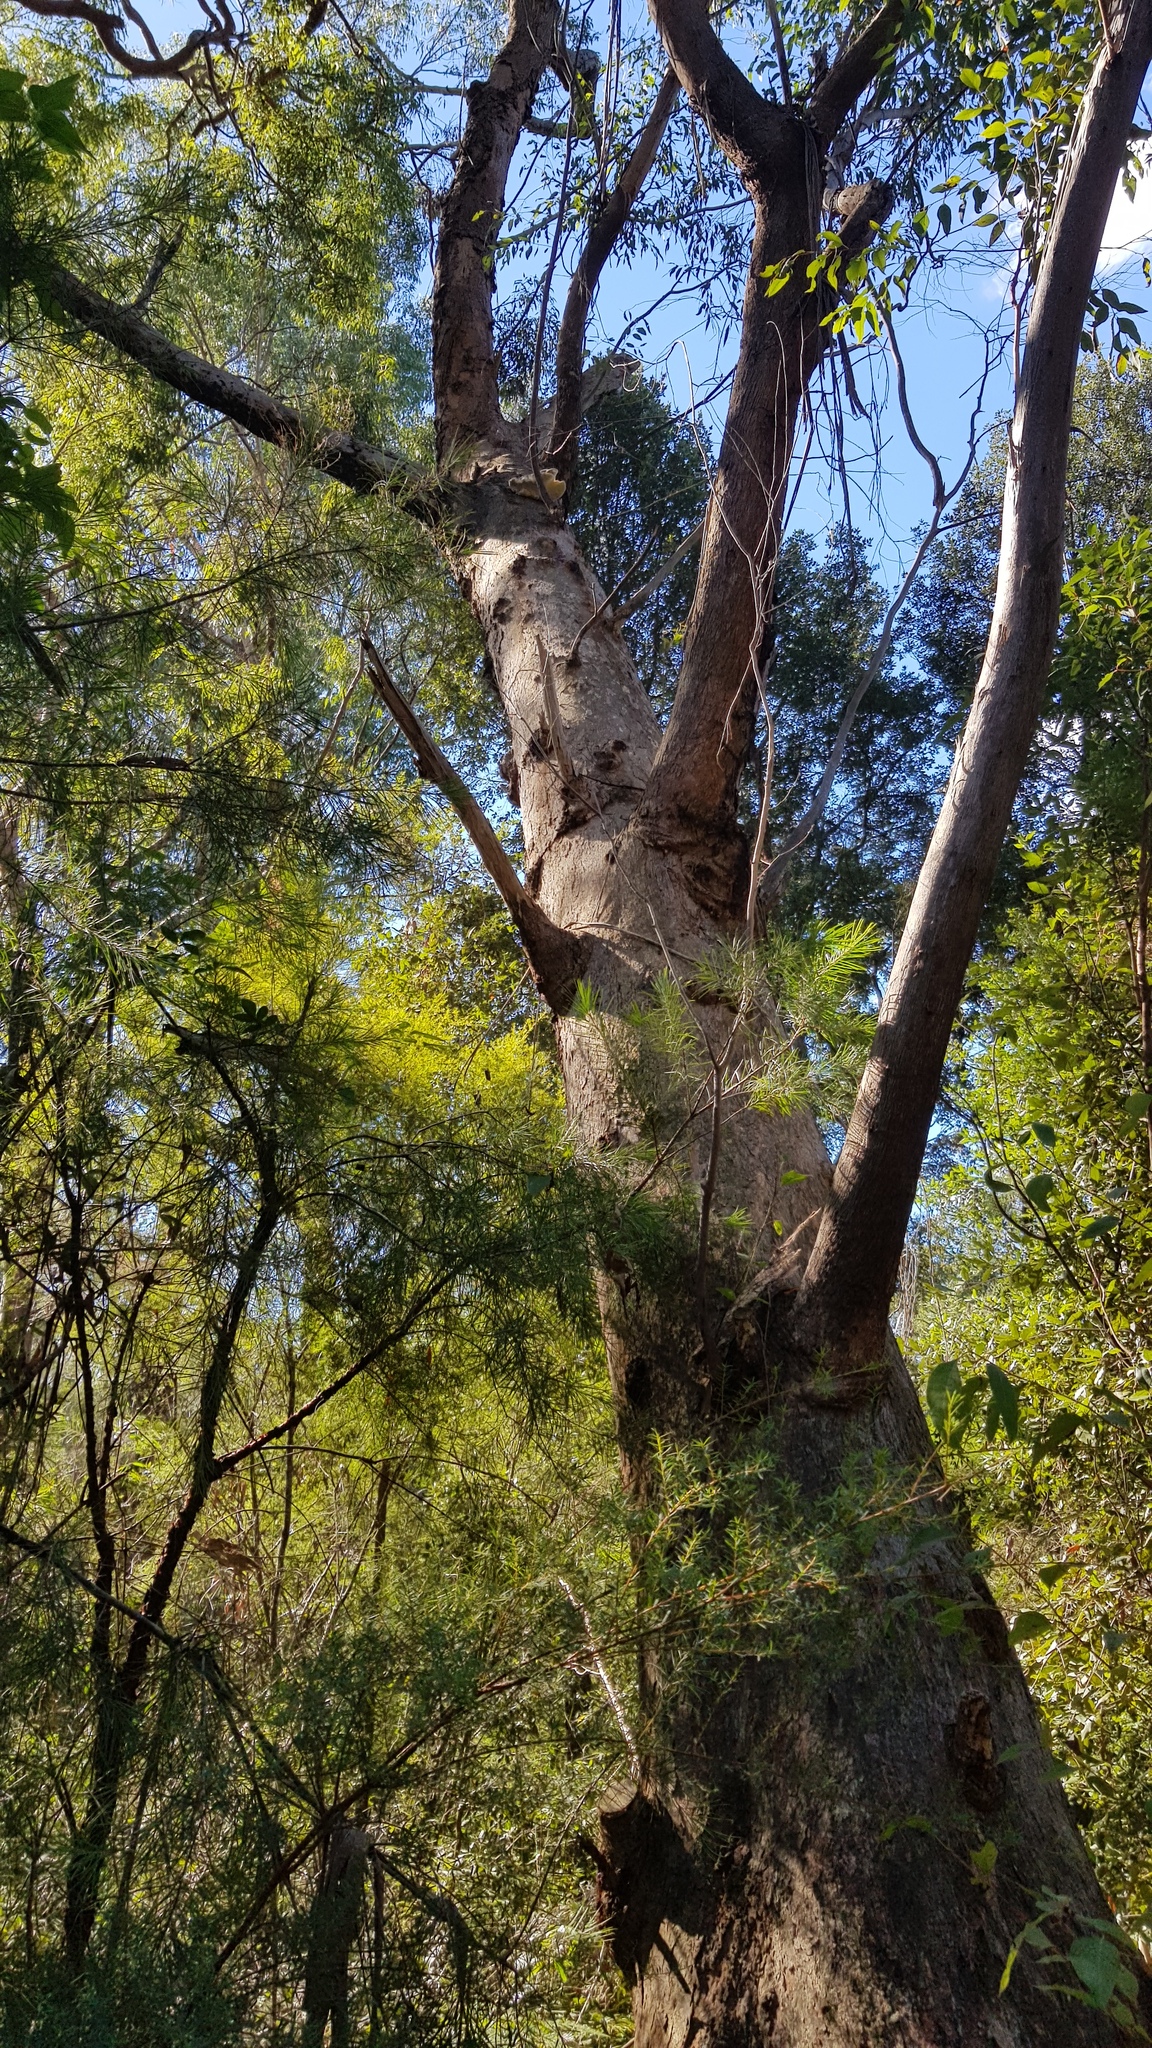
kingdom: Fungi
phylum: Basidiomycota
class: Agaricomycetes
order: Polyporales
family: Laetiporaceae
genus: Laetiporus
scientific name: Laetiporus portentosus
